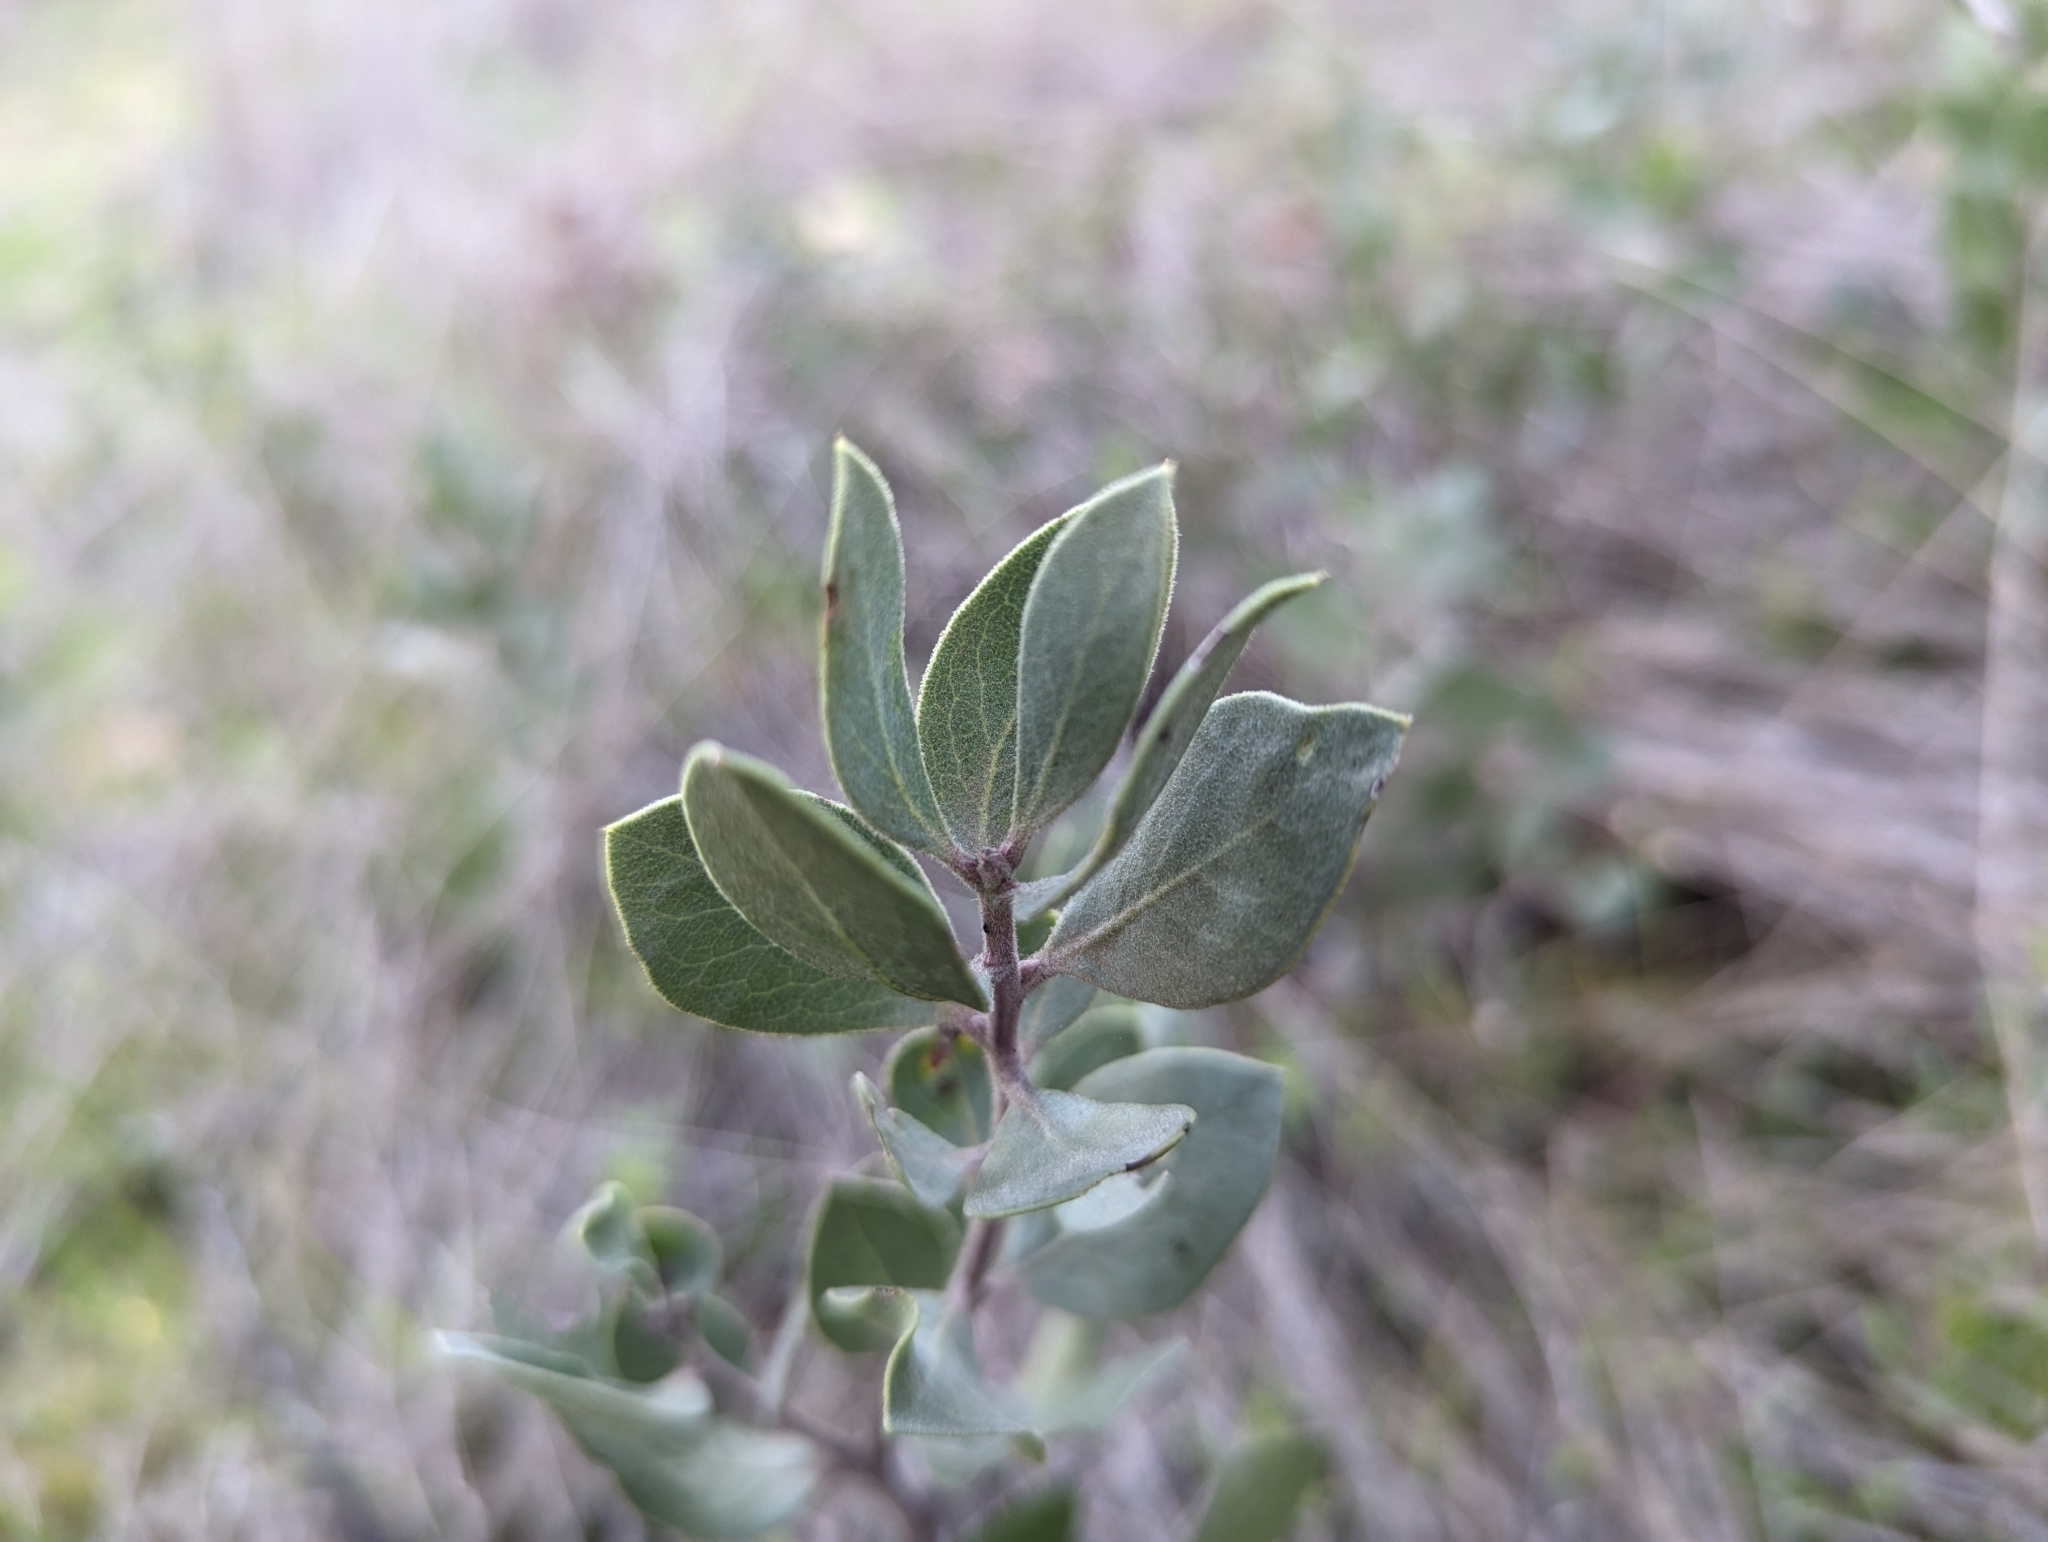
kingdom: Plantae
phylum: Tracheophyta
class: Magnoliopsida
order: Ericales
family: Ericaceae
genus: Arctostaphylos
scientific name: Arctostaphylos manzanita
